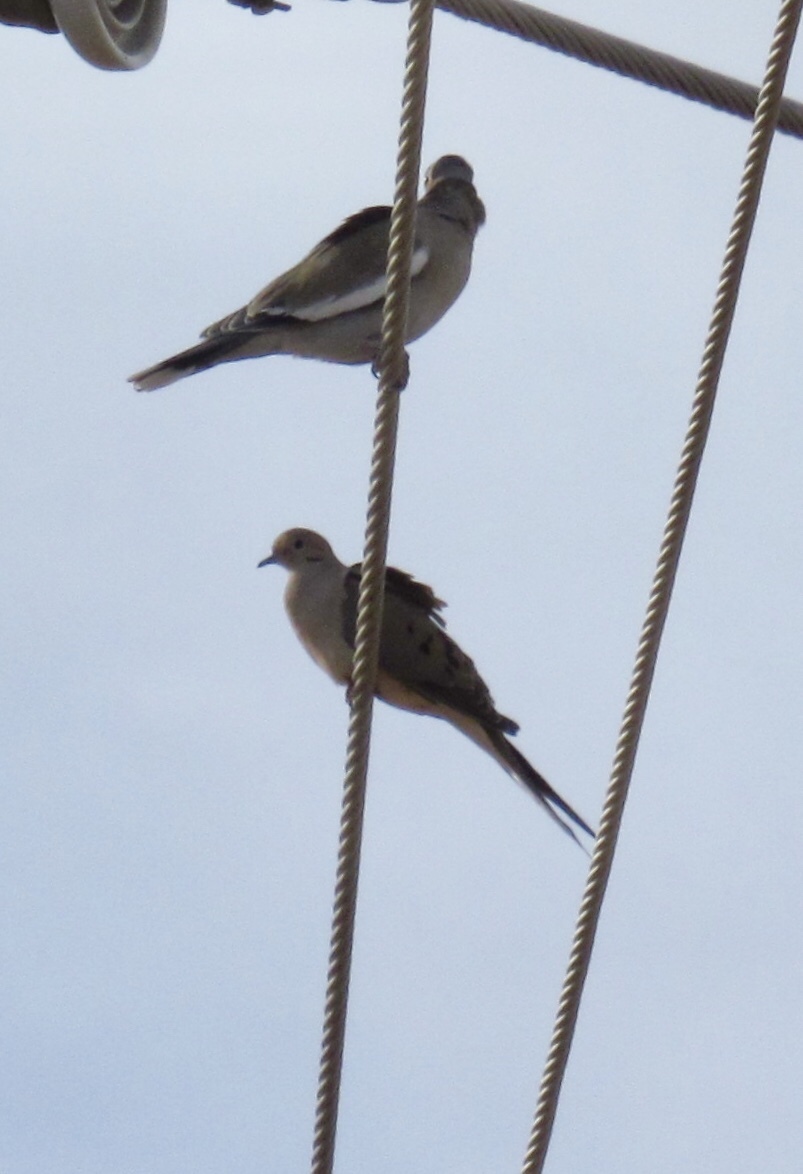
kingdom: Animalia
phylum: Chordata
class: Aves
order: Columbiformes
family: Columbidae
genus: Zenaida
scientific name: Zenaida macroura
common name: Mourning dove
